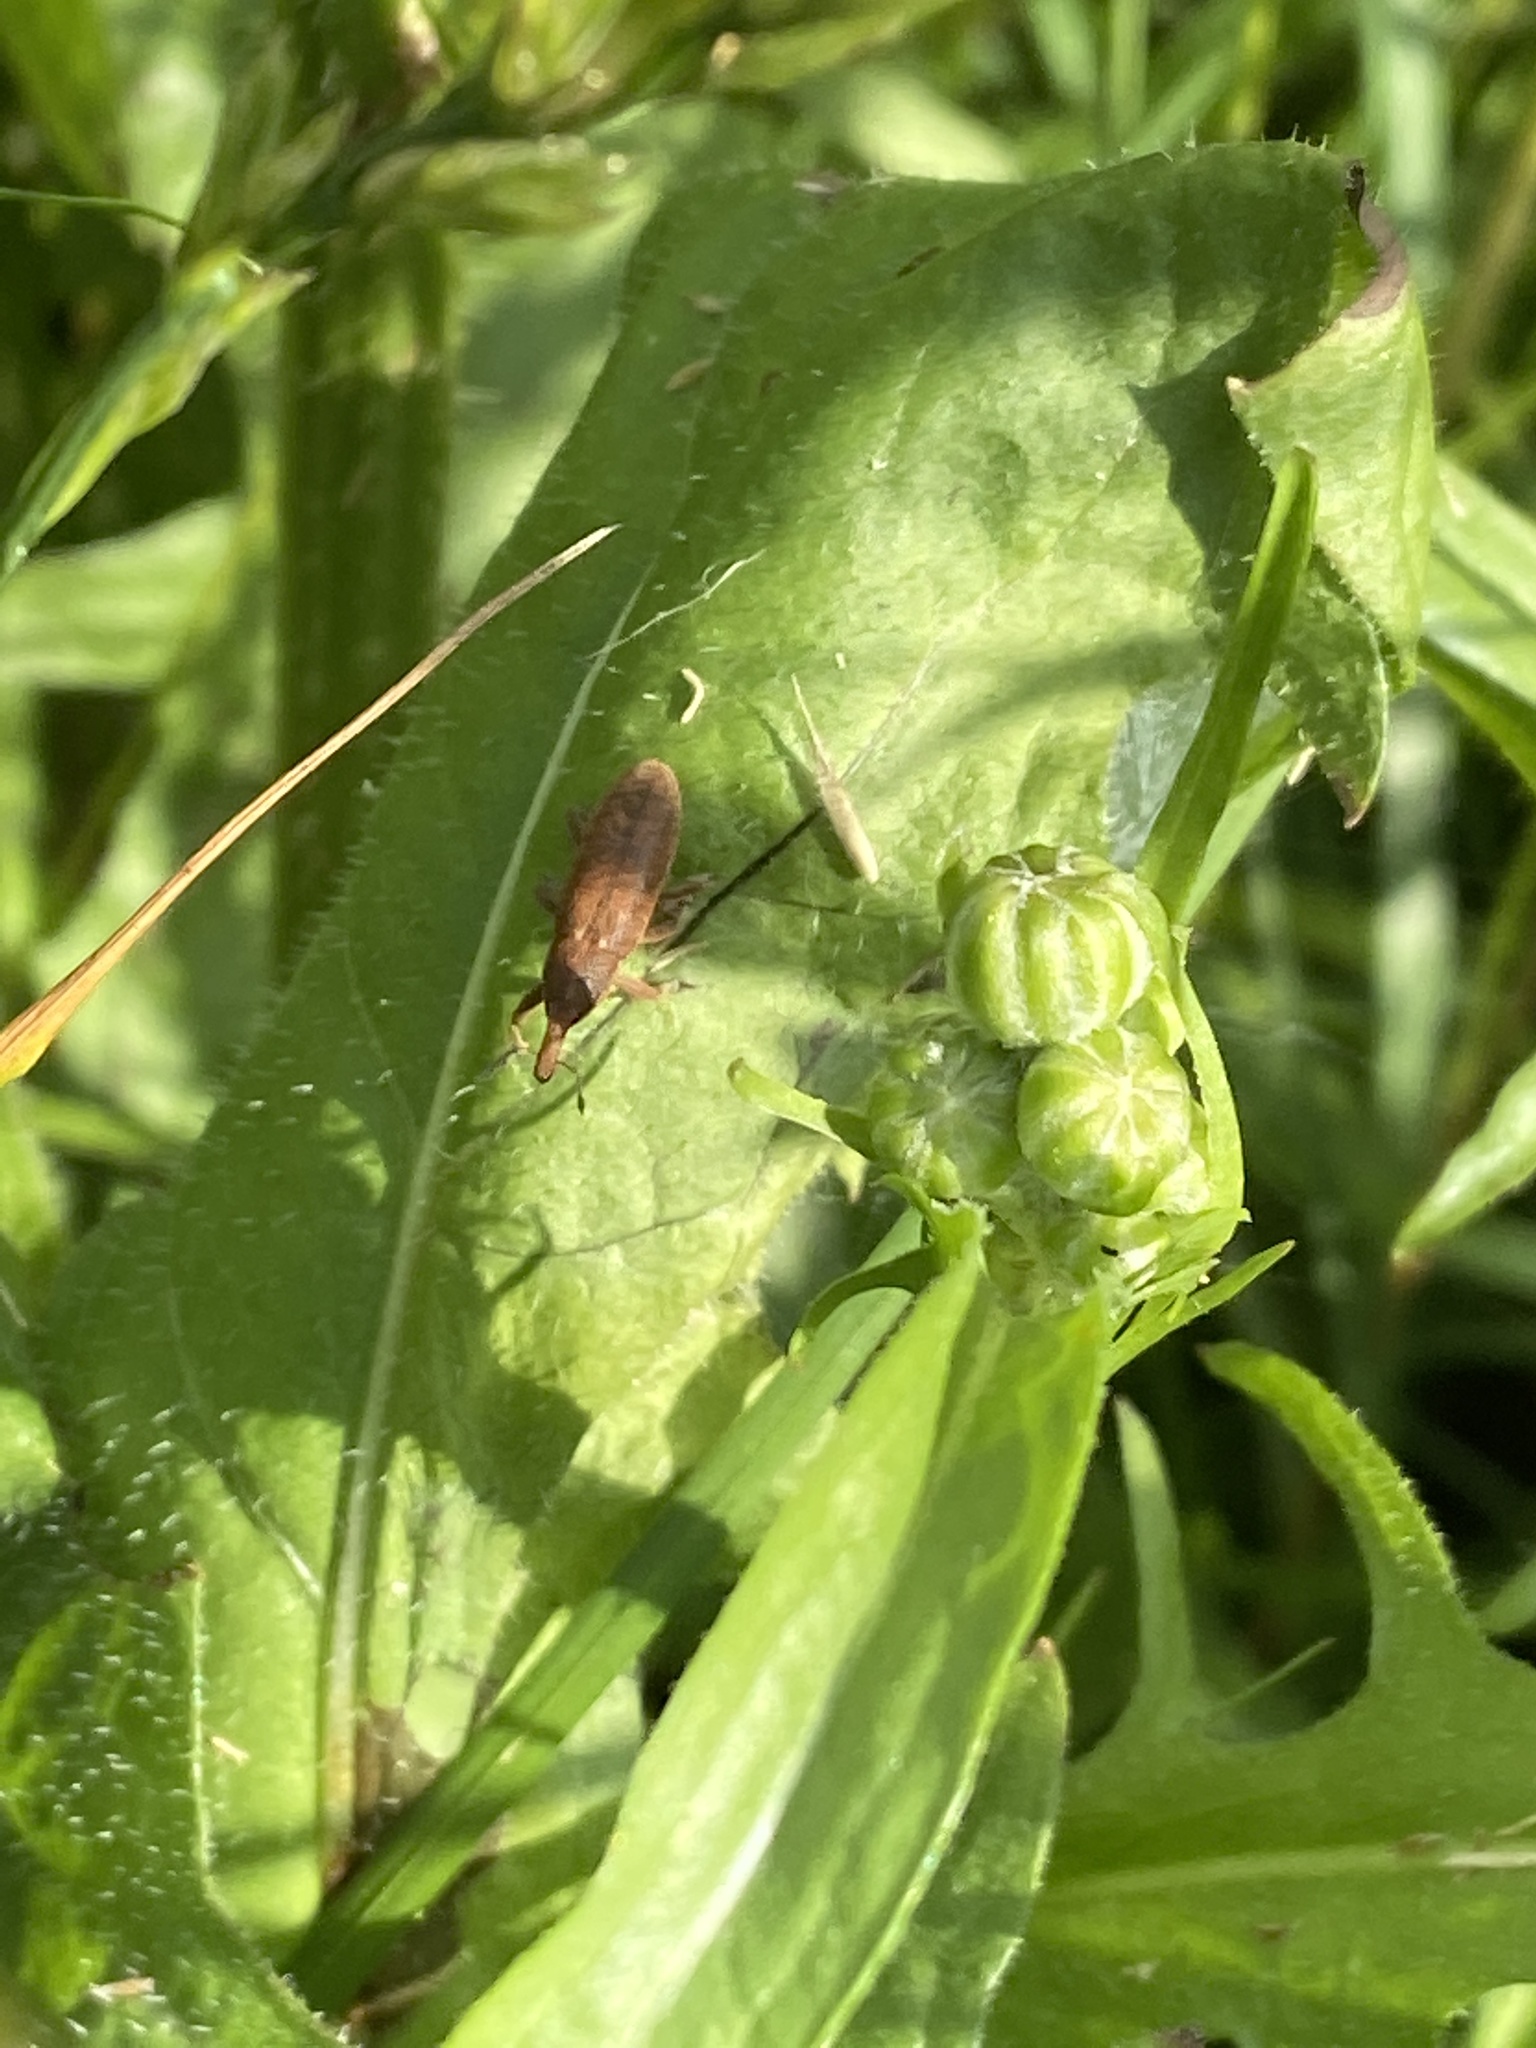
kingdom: Animalia
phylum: Arthropoda
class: Insecta
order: Coleoptera
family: Curculionidae
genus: Lixus
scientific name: Lixus punctiventris
